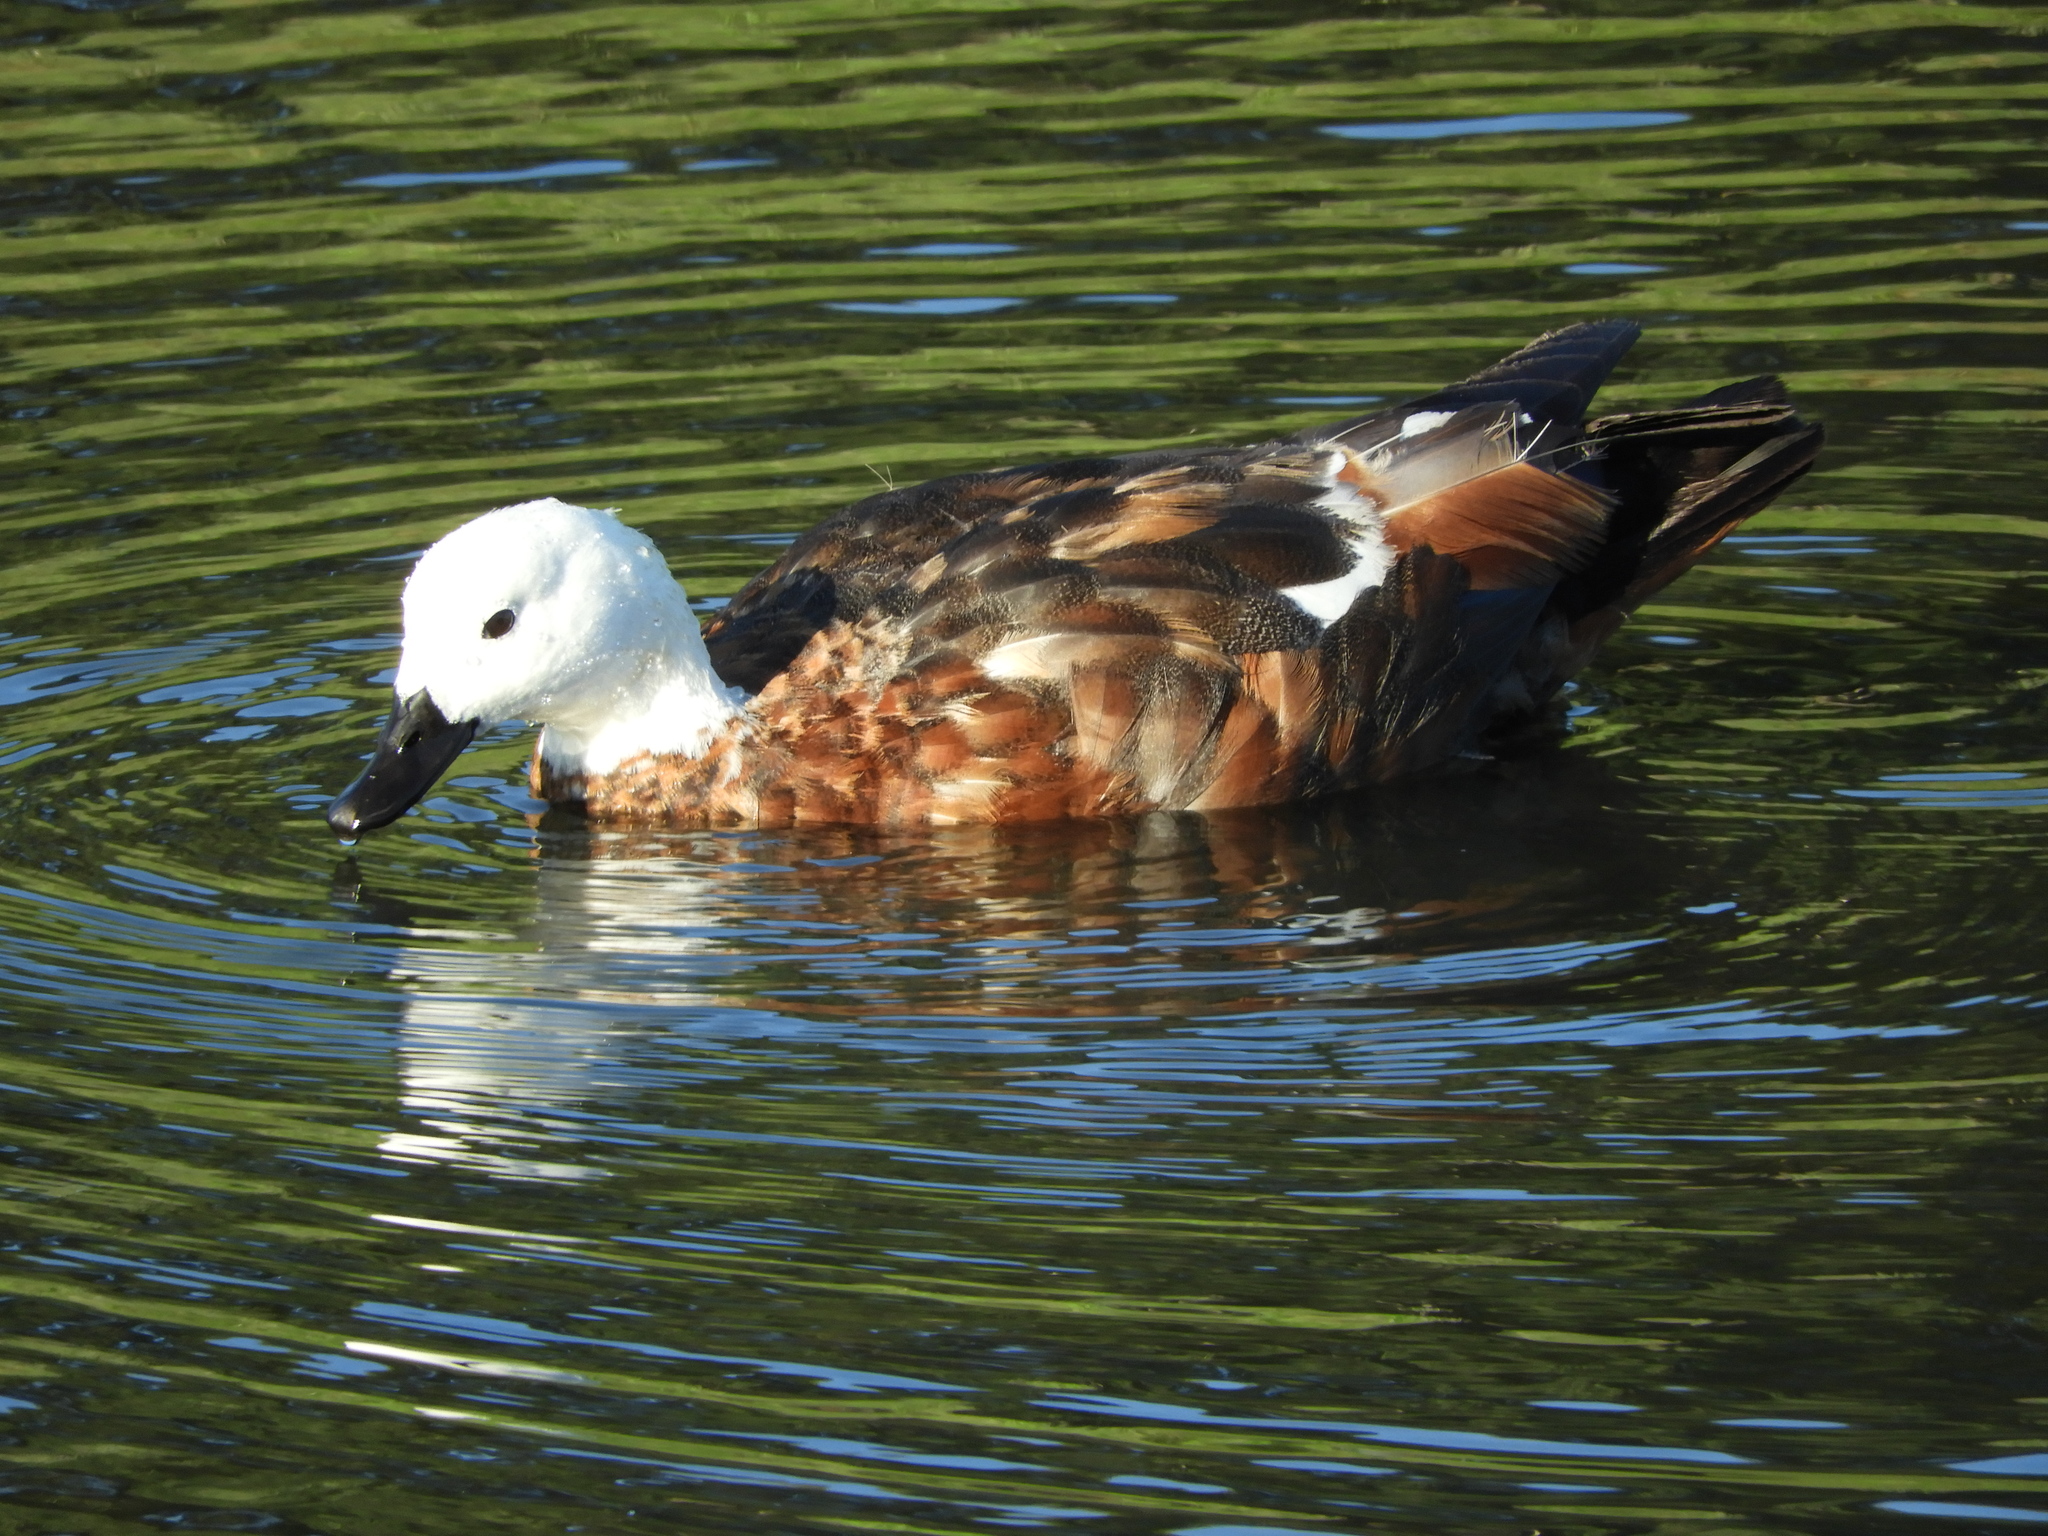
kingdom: Animalia
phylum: Chordata
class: Aves
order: Anseriformes
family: Anatidae
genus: Tadorna
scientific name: Tadorna variegata
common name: Paradise shelduck
